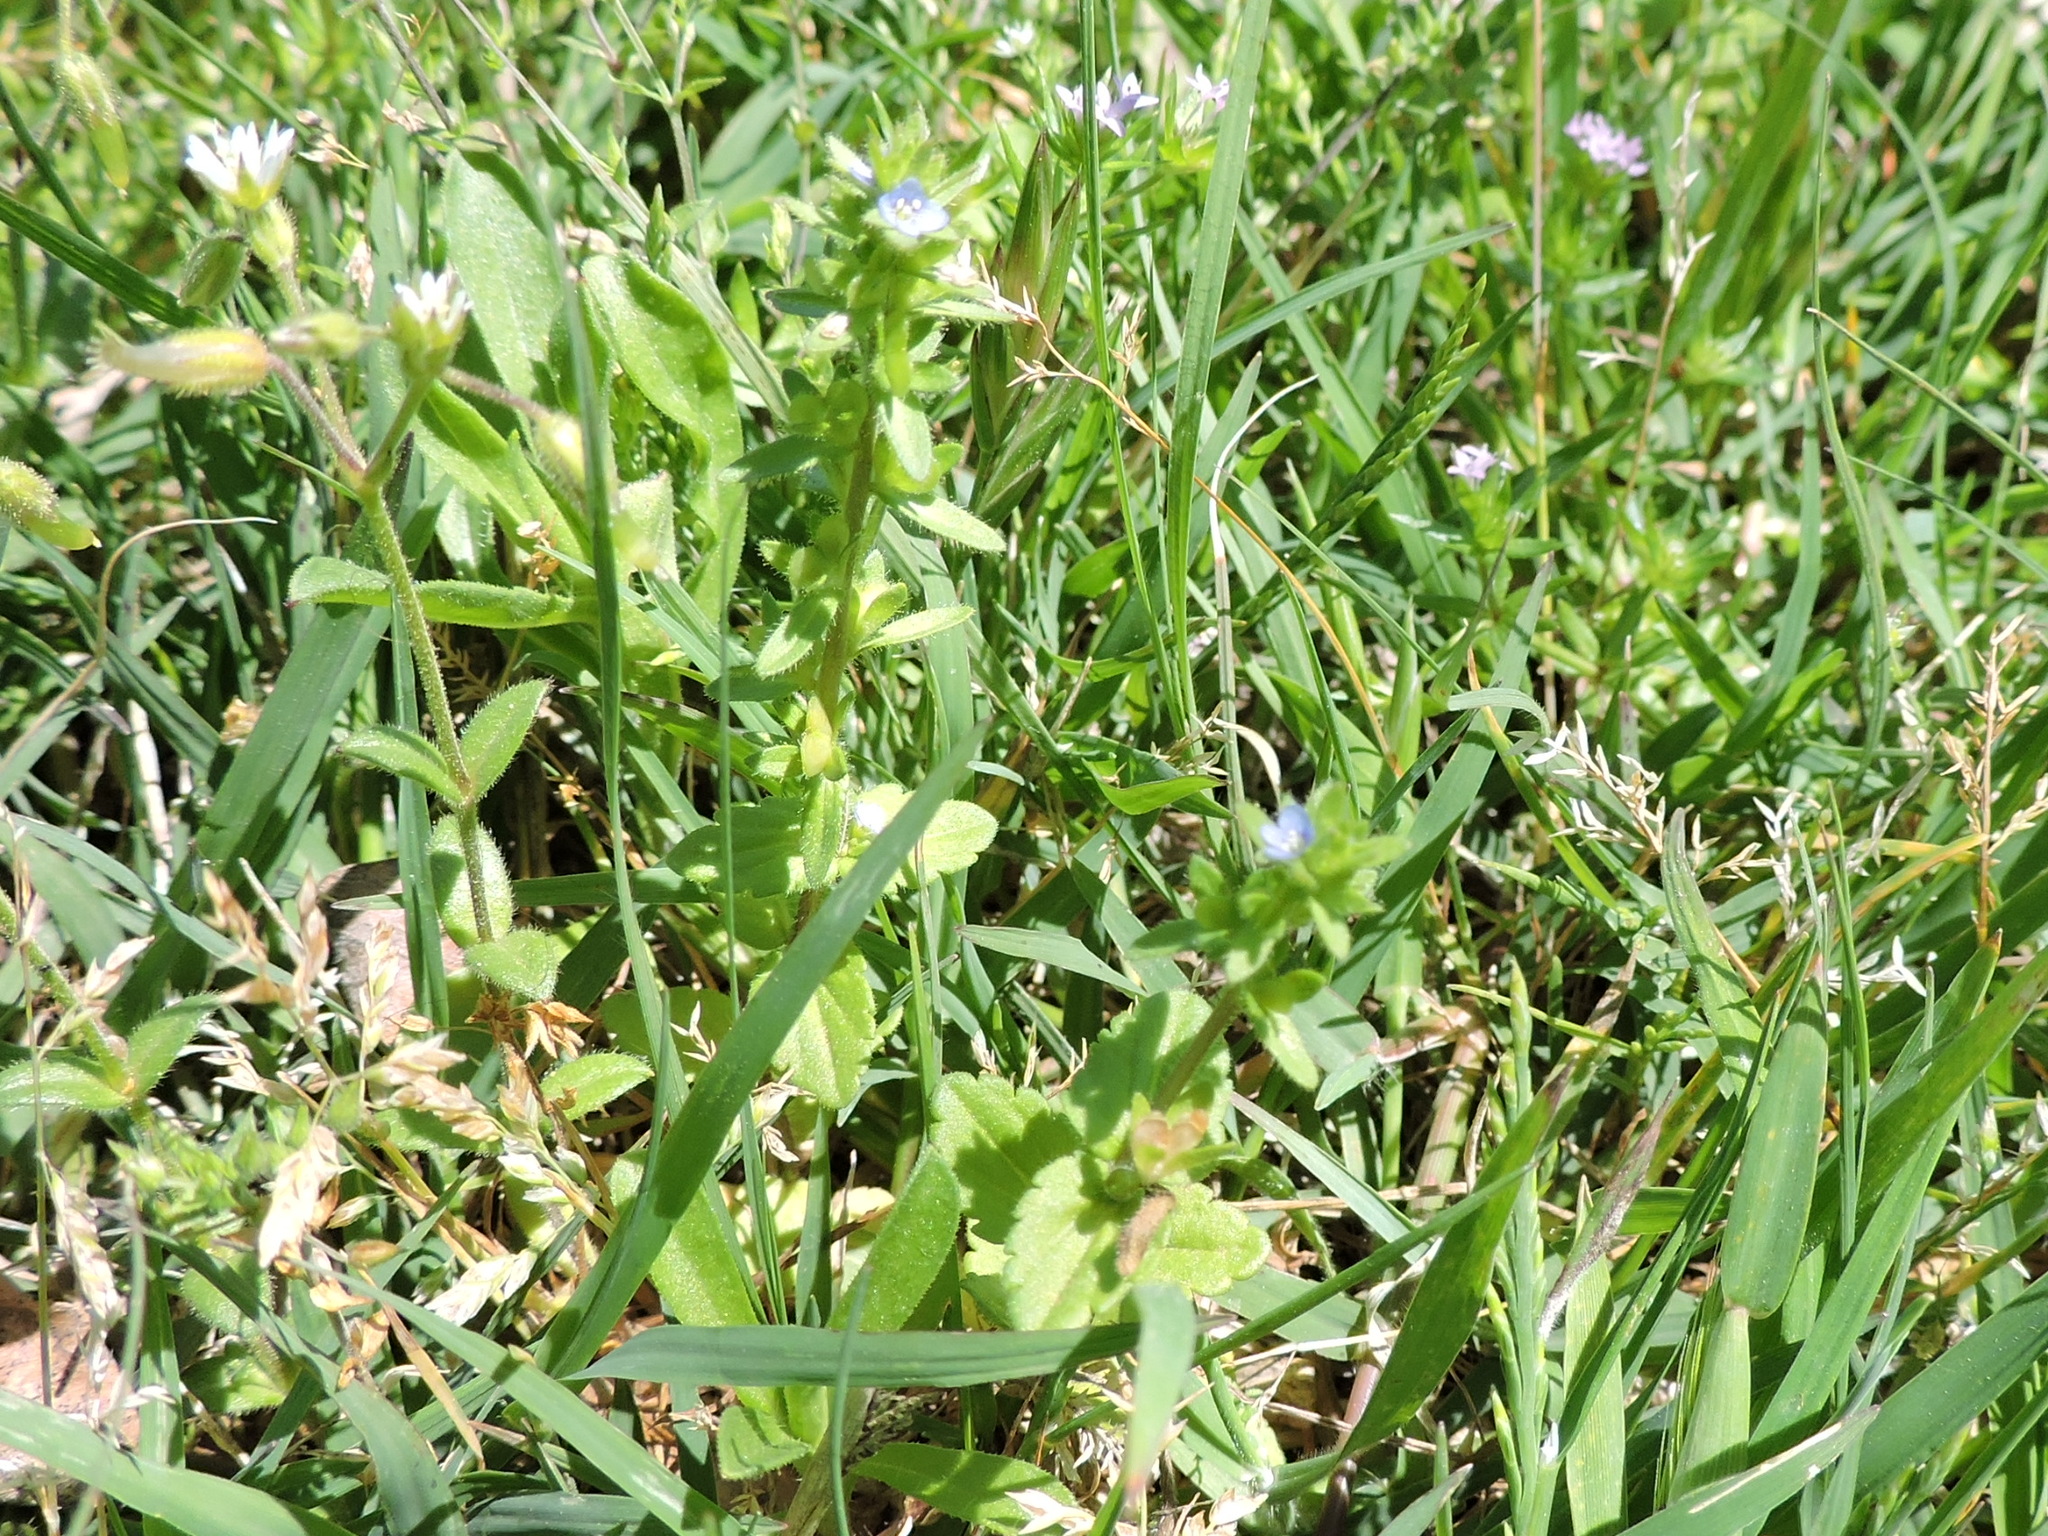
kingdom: Plantae
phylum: Tracheophyta
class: Magnoliopsida
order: Lamiales
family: Plantaginaceae
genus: Veronica
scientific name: Veronica arvensis
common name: Corn speedwell
